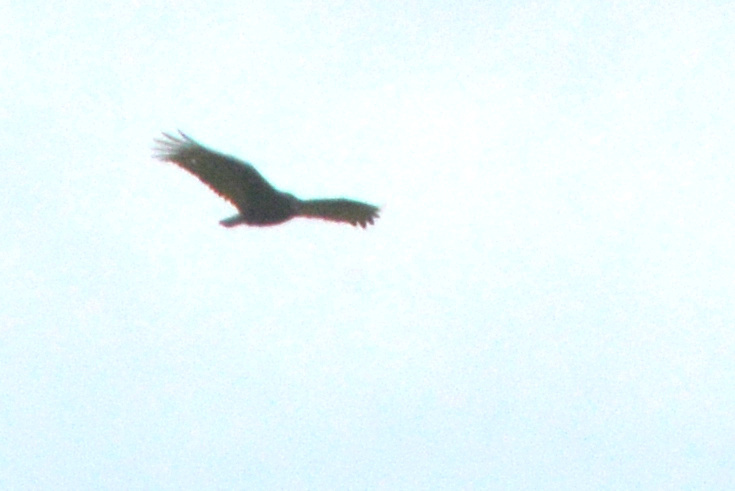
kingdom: Animalia
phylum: Chordata
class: Aves
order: Accipitriformes
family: Cathartidae
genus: Cathartes
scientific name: Cathartes aura
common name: Turkey vulture
